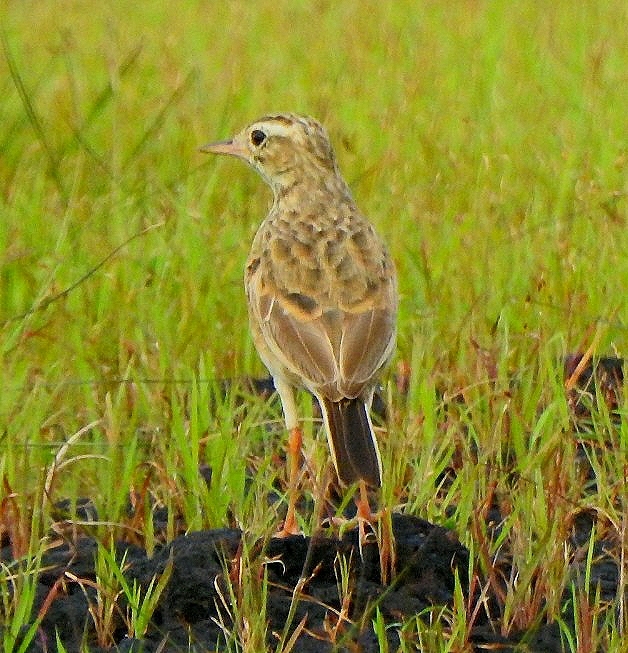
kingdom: Animalia
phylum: Chordata
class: Aves
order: Passeriformes
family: Motacillidae
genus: Anthus
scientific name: Anthus rufulus
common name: Paddyfield pipit
